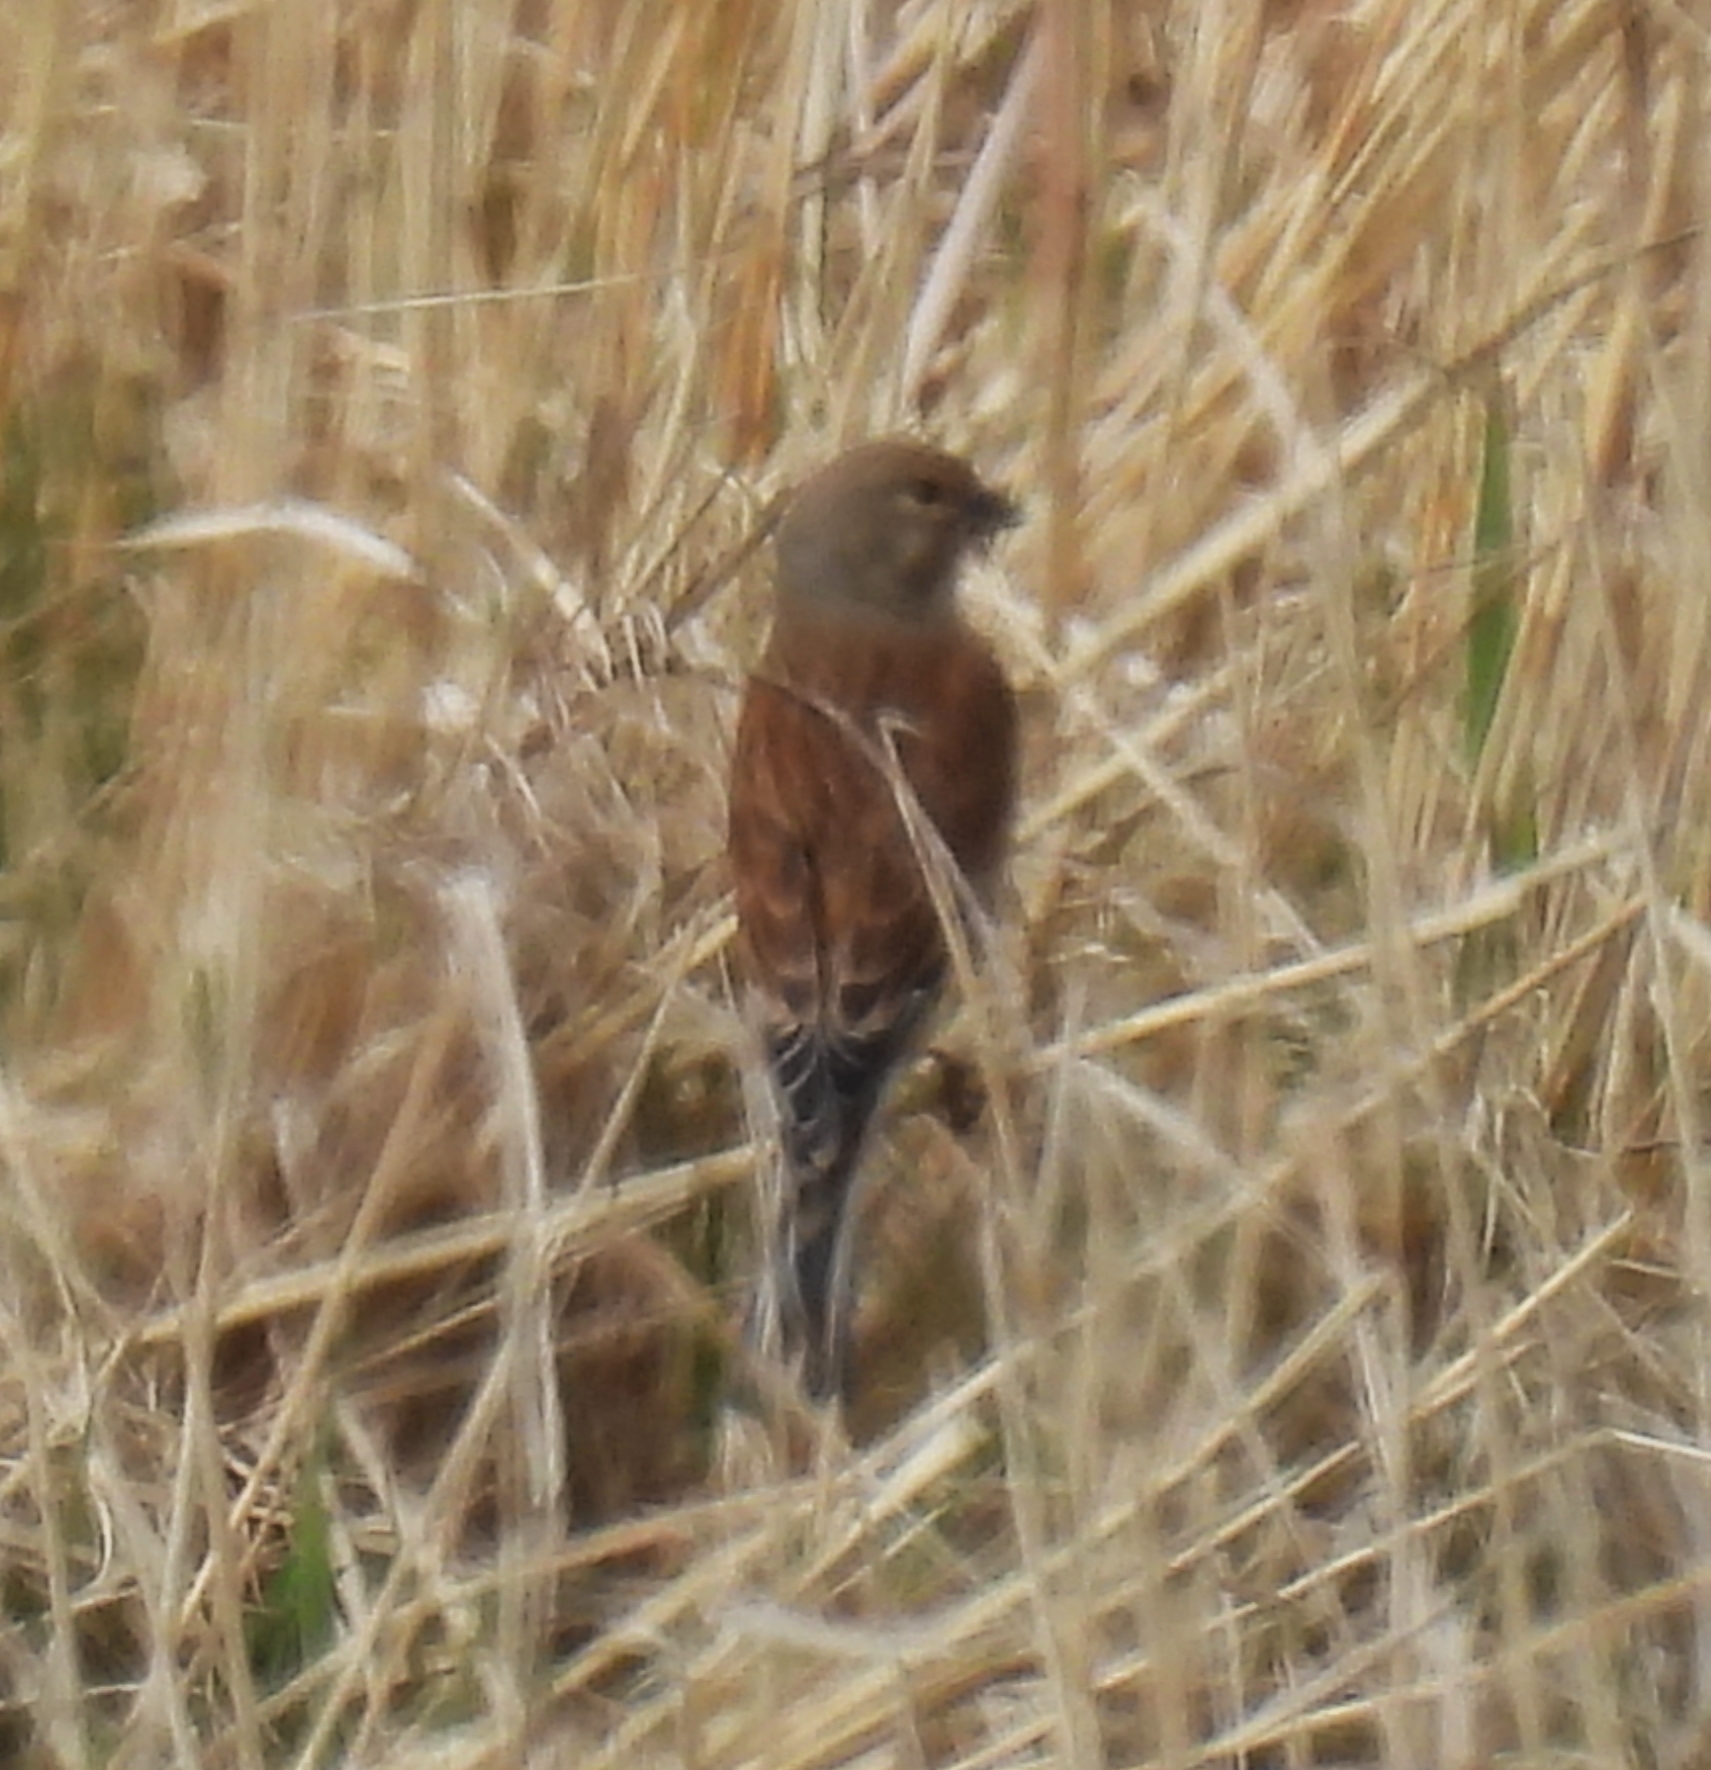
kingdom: Animalia
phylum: Chordata
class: Aves
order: Passeriformes
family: Fringillidae
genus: Linaria
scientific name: Linaria cannabina
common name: Common linnet
